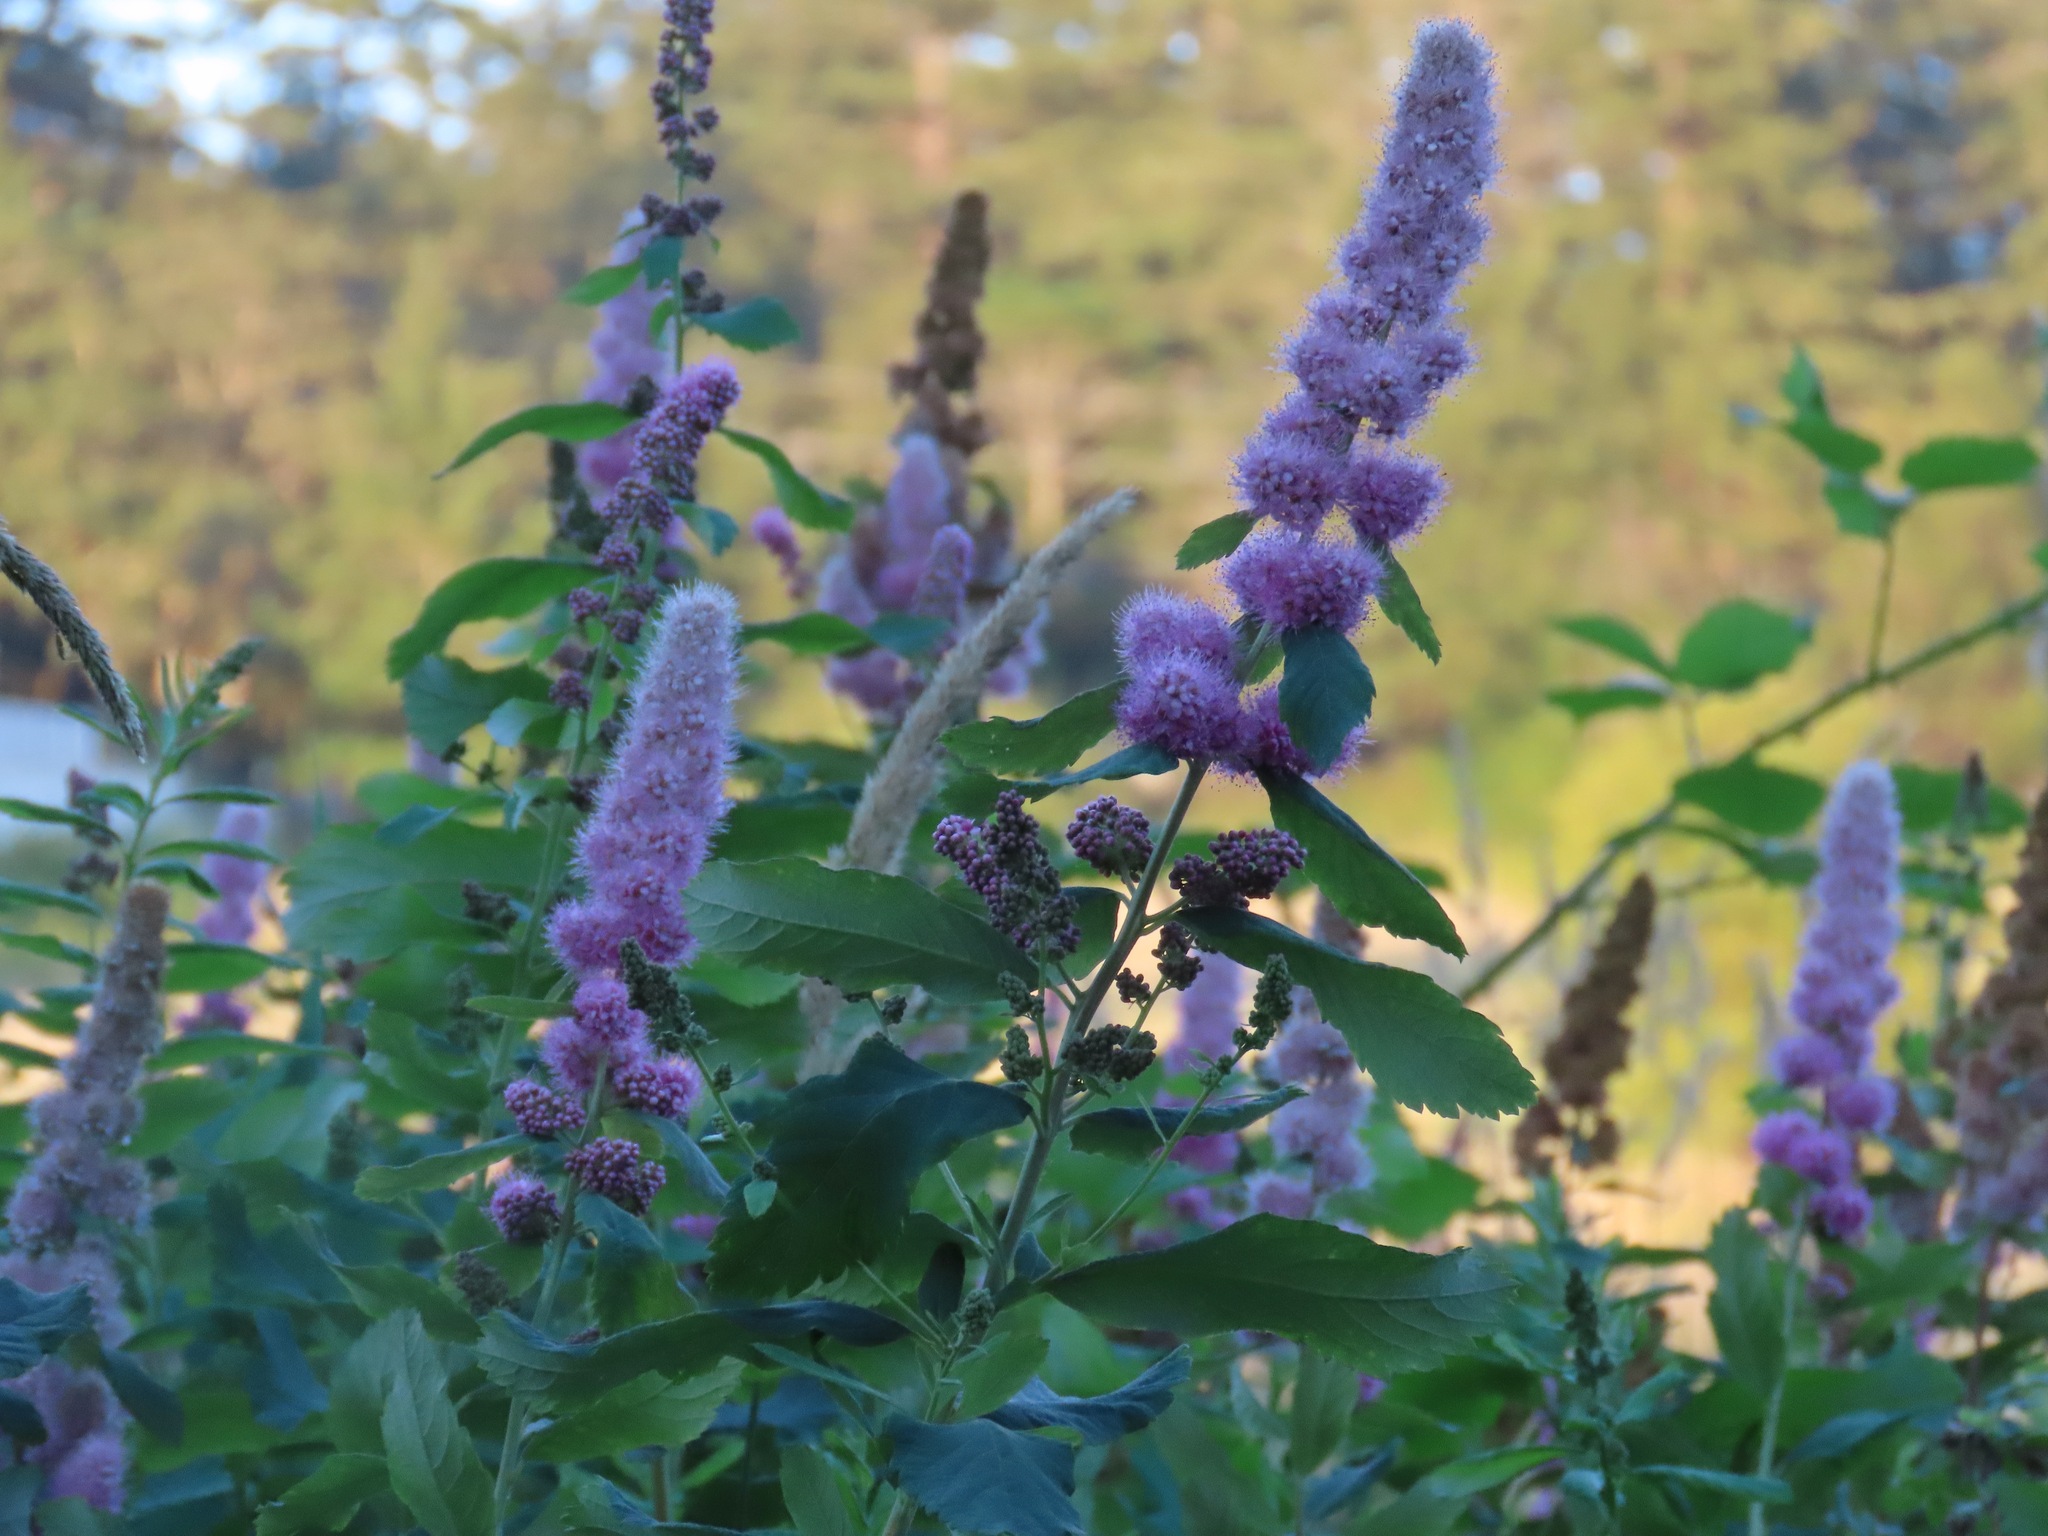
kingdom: Plantae
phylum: Tracheophyta
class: Magnoliopsida
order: Rosales
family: Rosaceae
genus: Spiraea
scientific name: Spiraea douglasii
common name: Steeplebush
